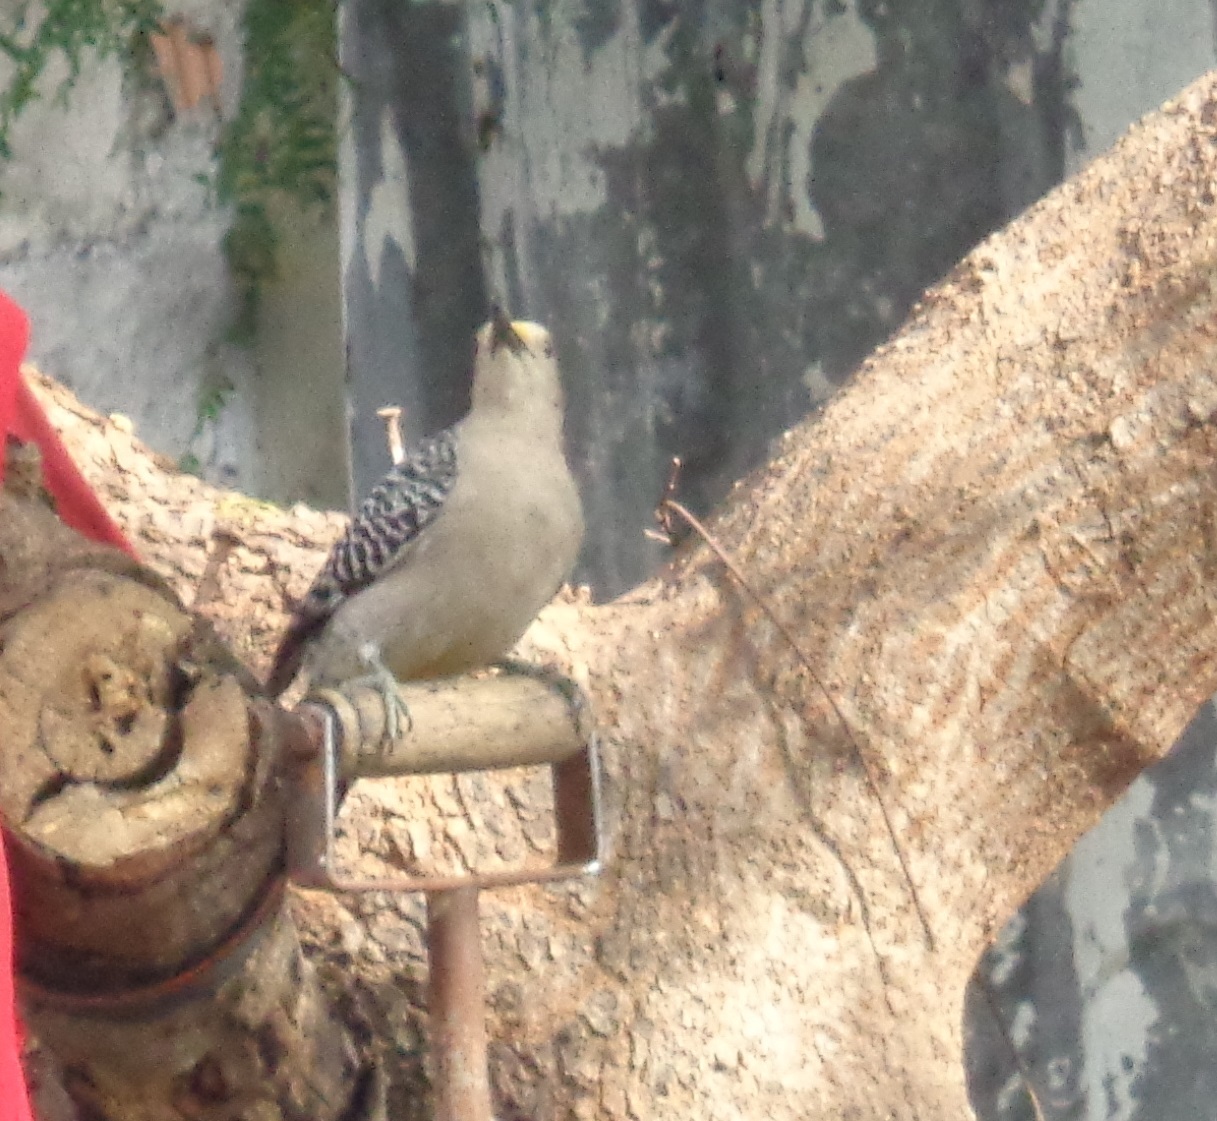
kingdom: Animalia
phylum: Chordata
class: Aves
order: Piciformes
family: Picidae
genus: Melanerpes
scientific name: Melanerpes aurifrons
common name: Golden-fronted woodpecker
